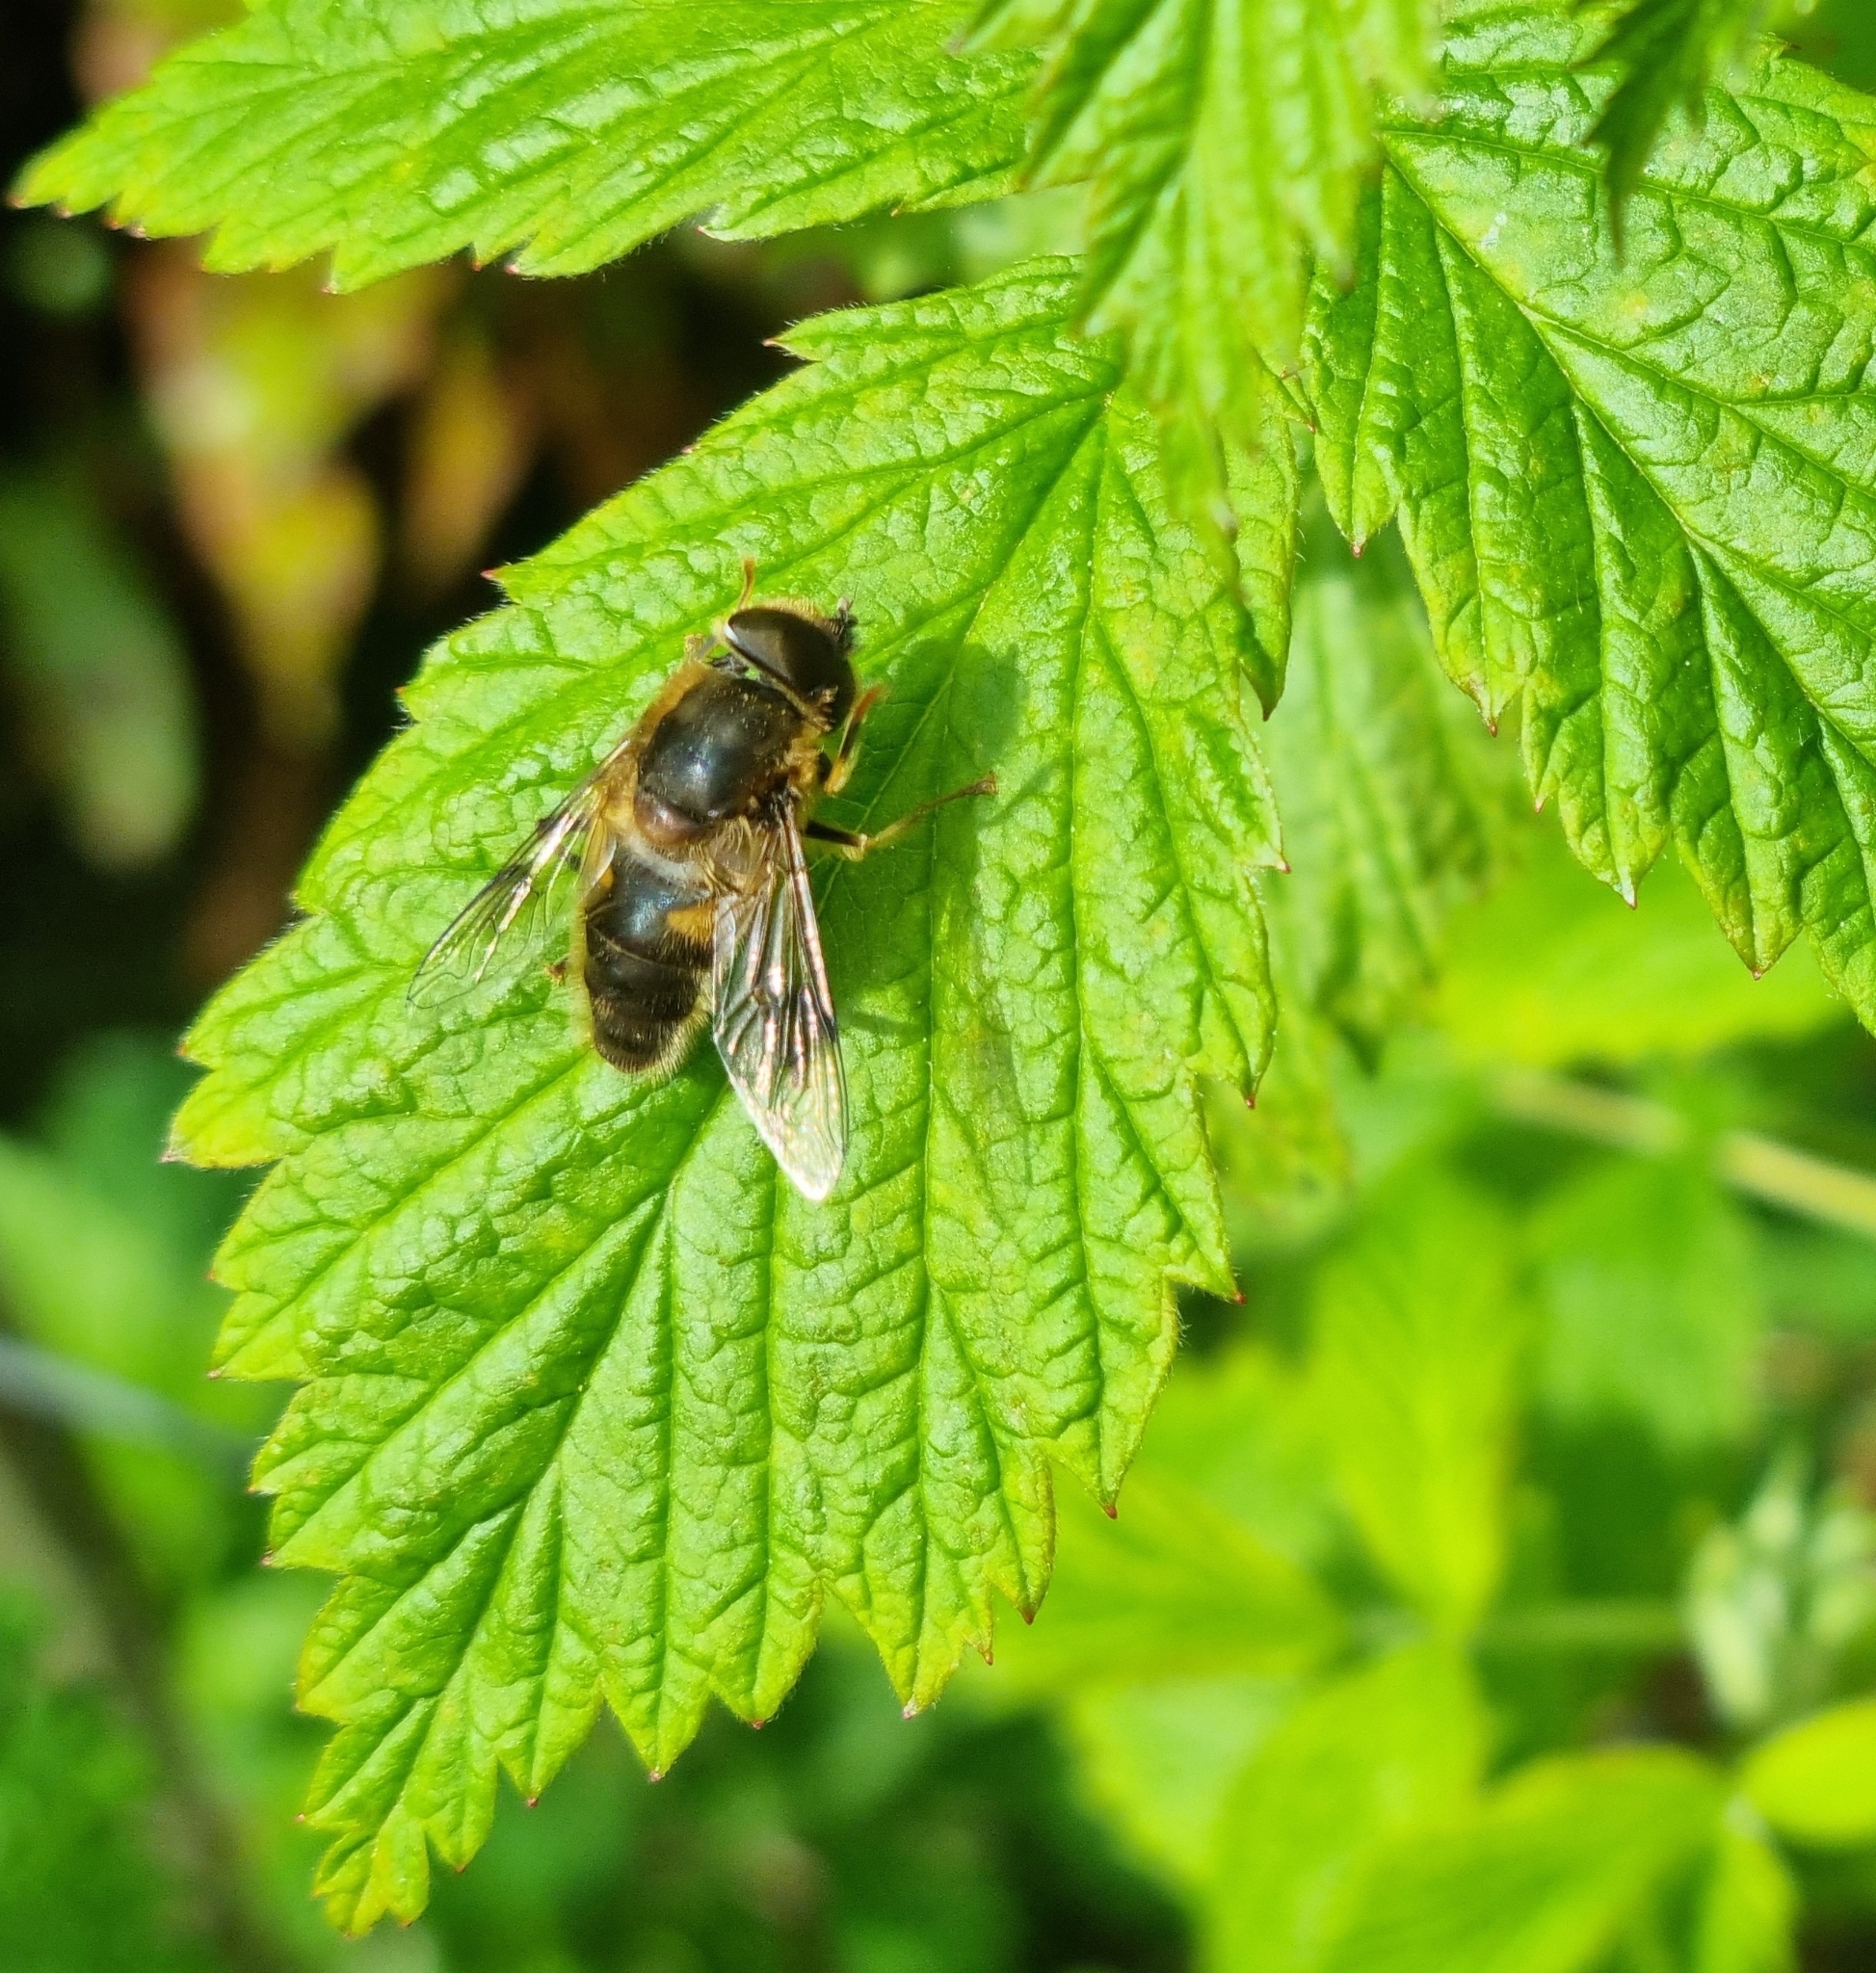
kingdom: Animalia
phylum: Arthropoda
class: Insecta
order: Diptera
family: Syrphidae
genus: Eristalis
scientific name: Eristalis pertinax
